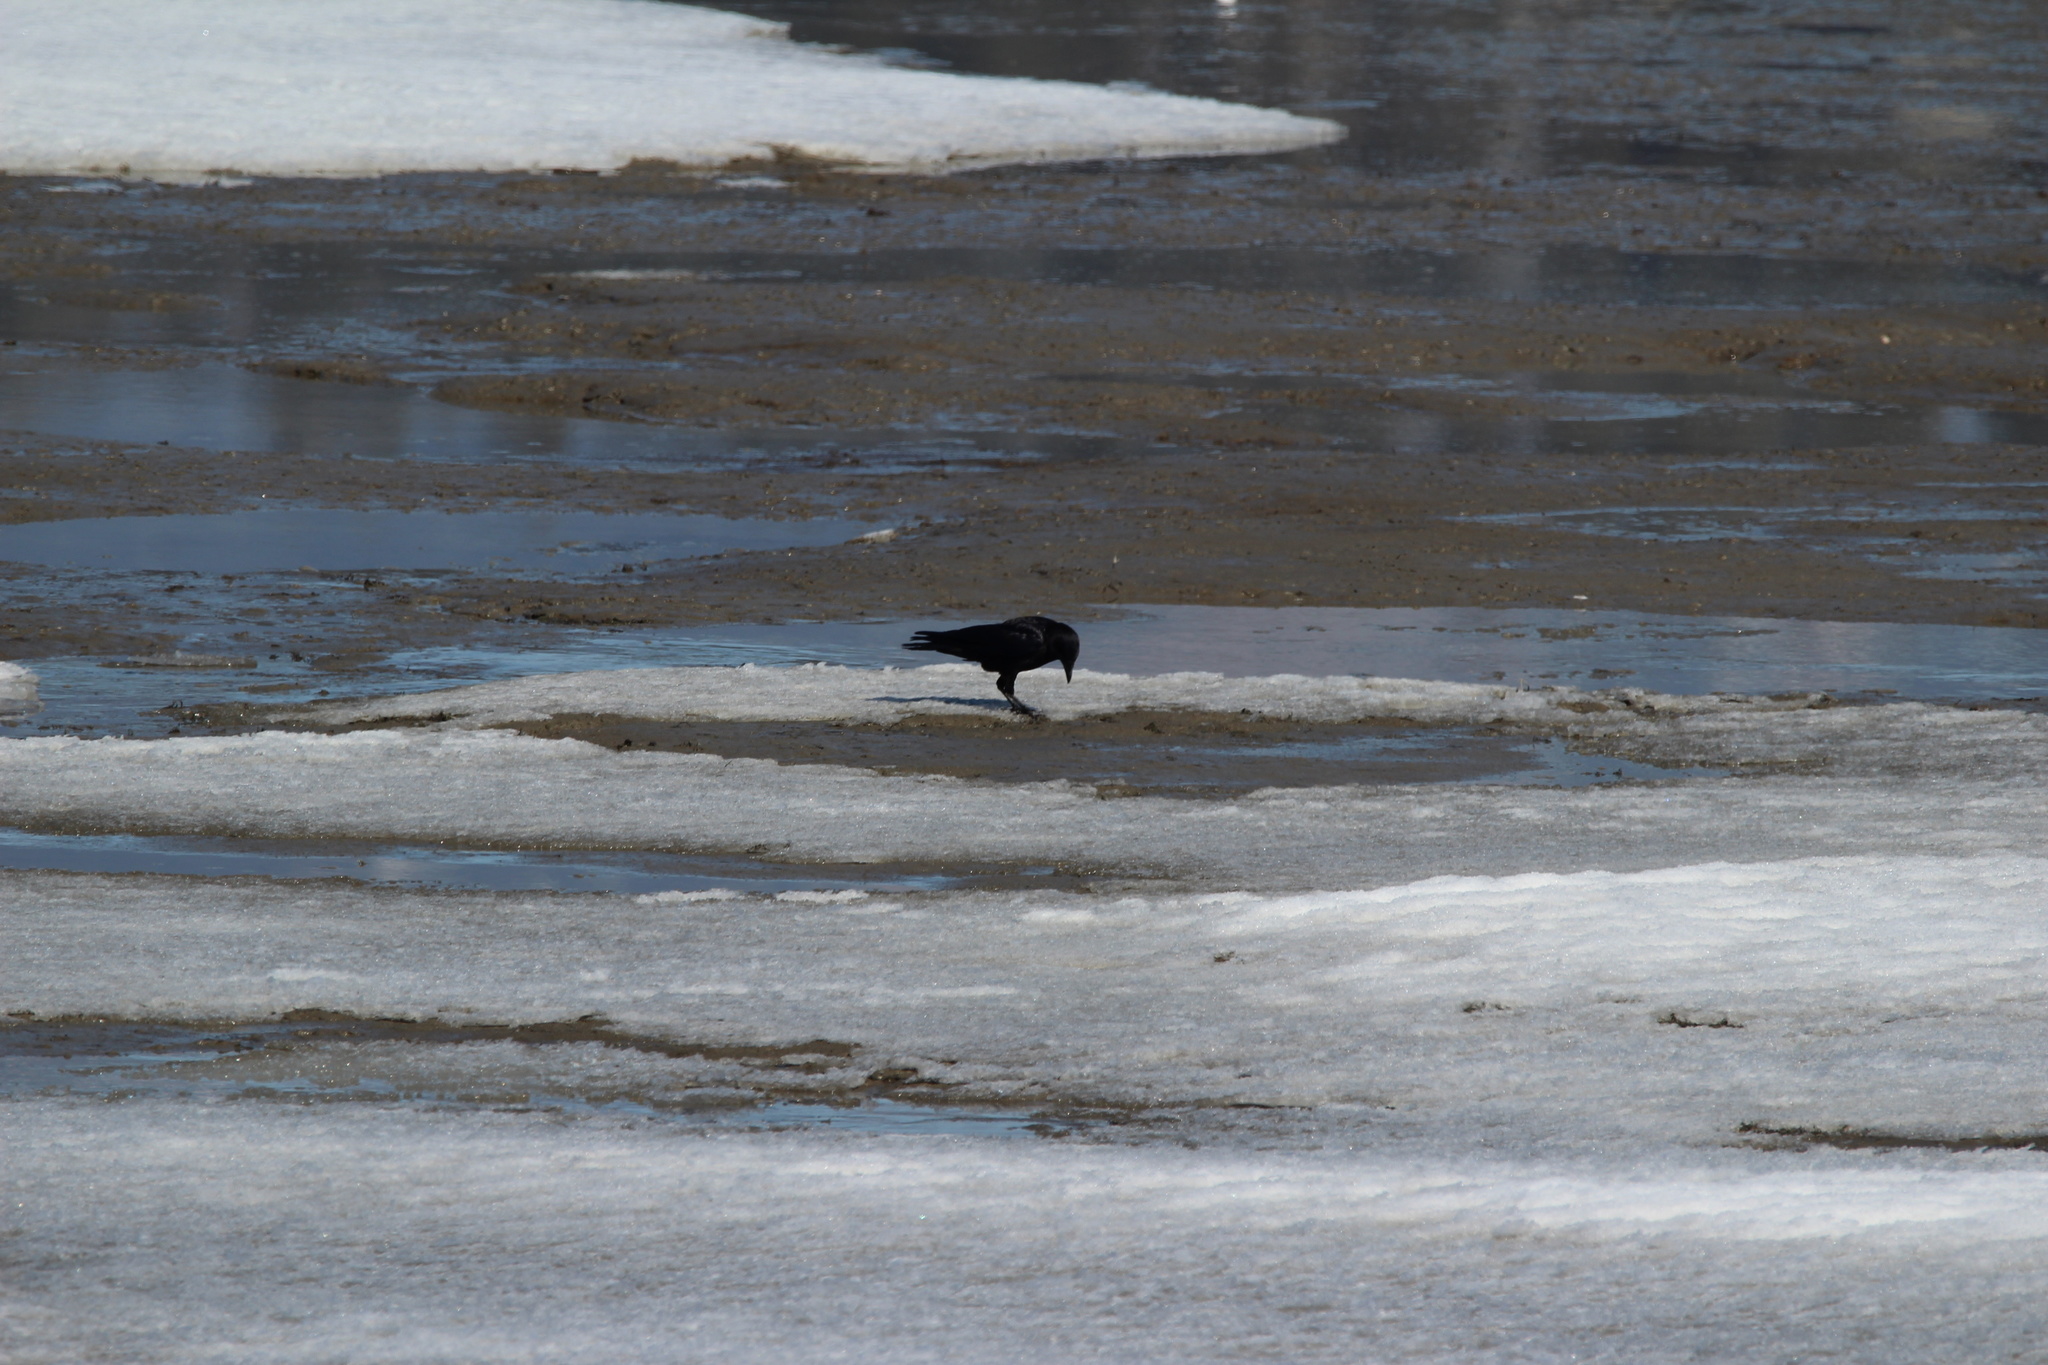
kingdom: Animalia
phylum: Chordata
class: Aves
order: Passeriformes
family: Corvidae
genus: Corvus
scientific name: Corvus brachyrhynchos
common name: American crow
